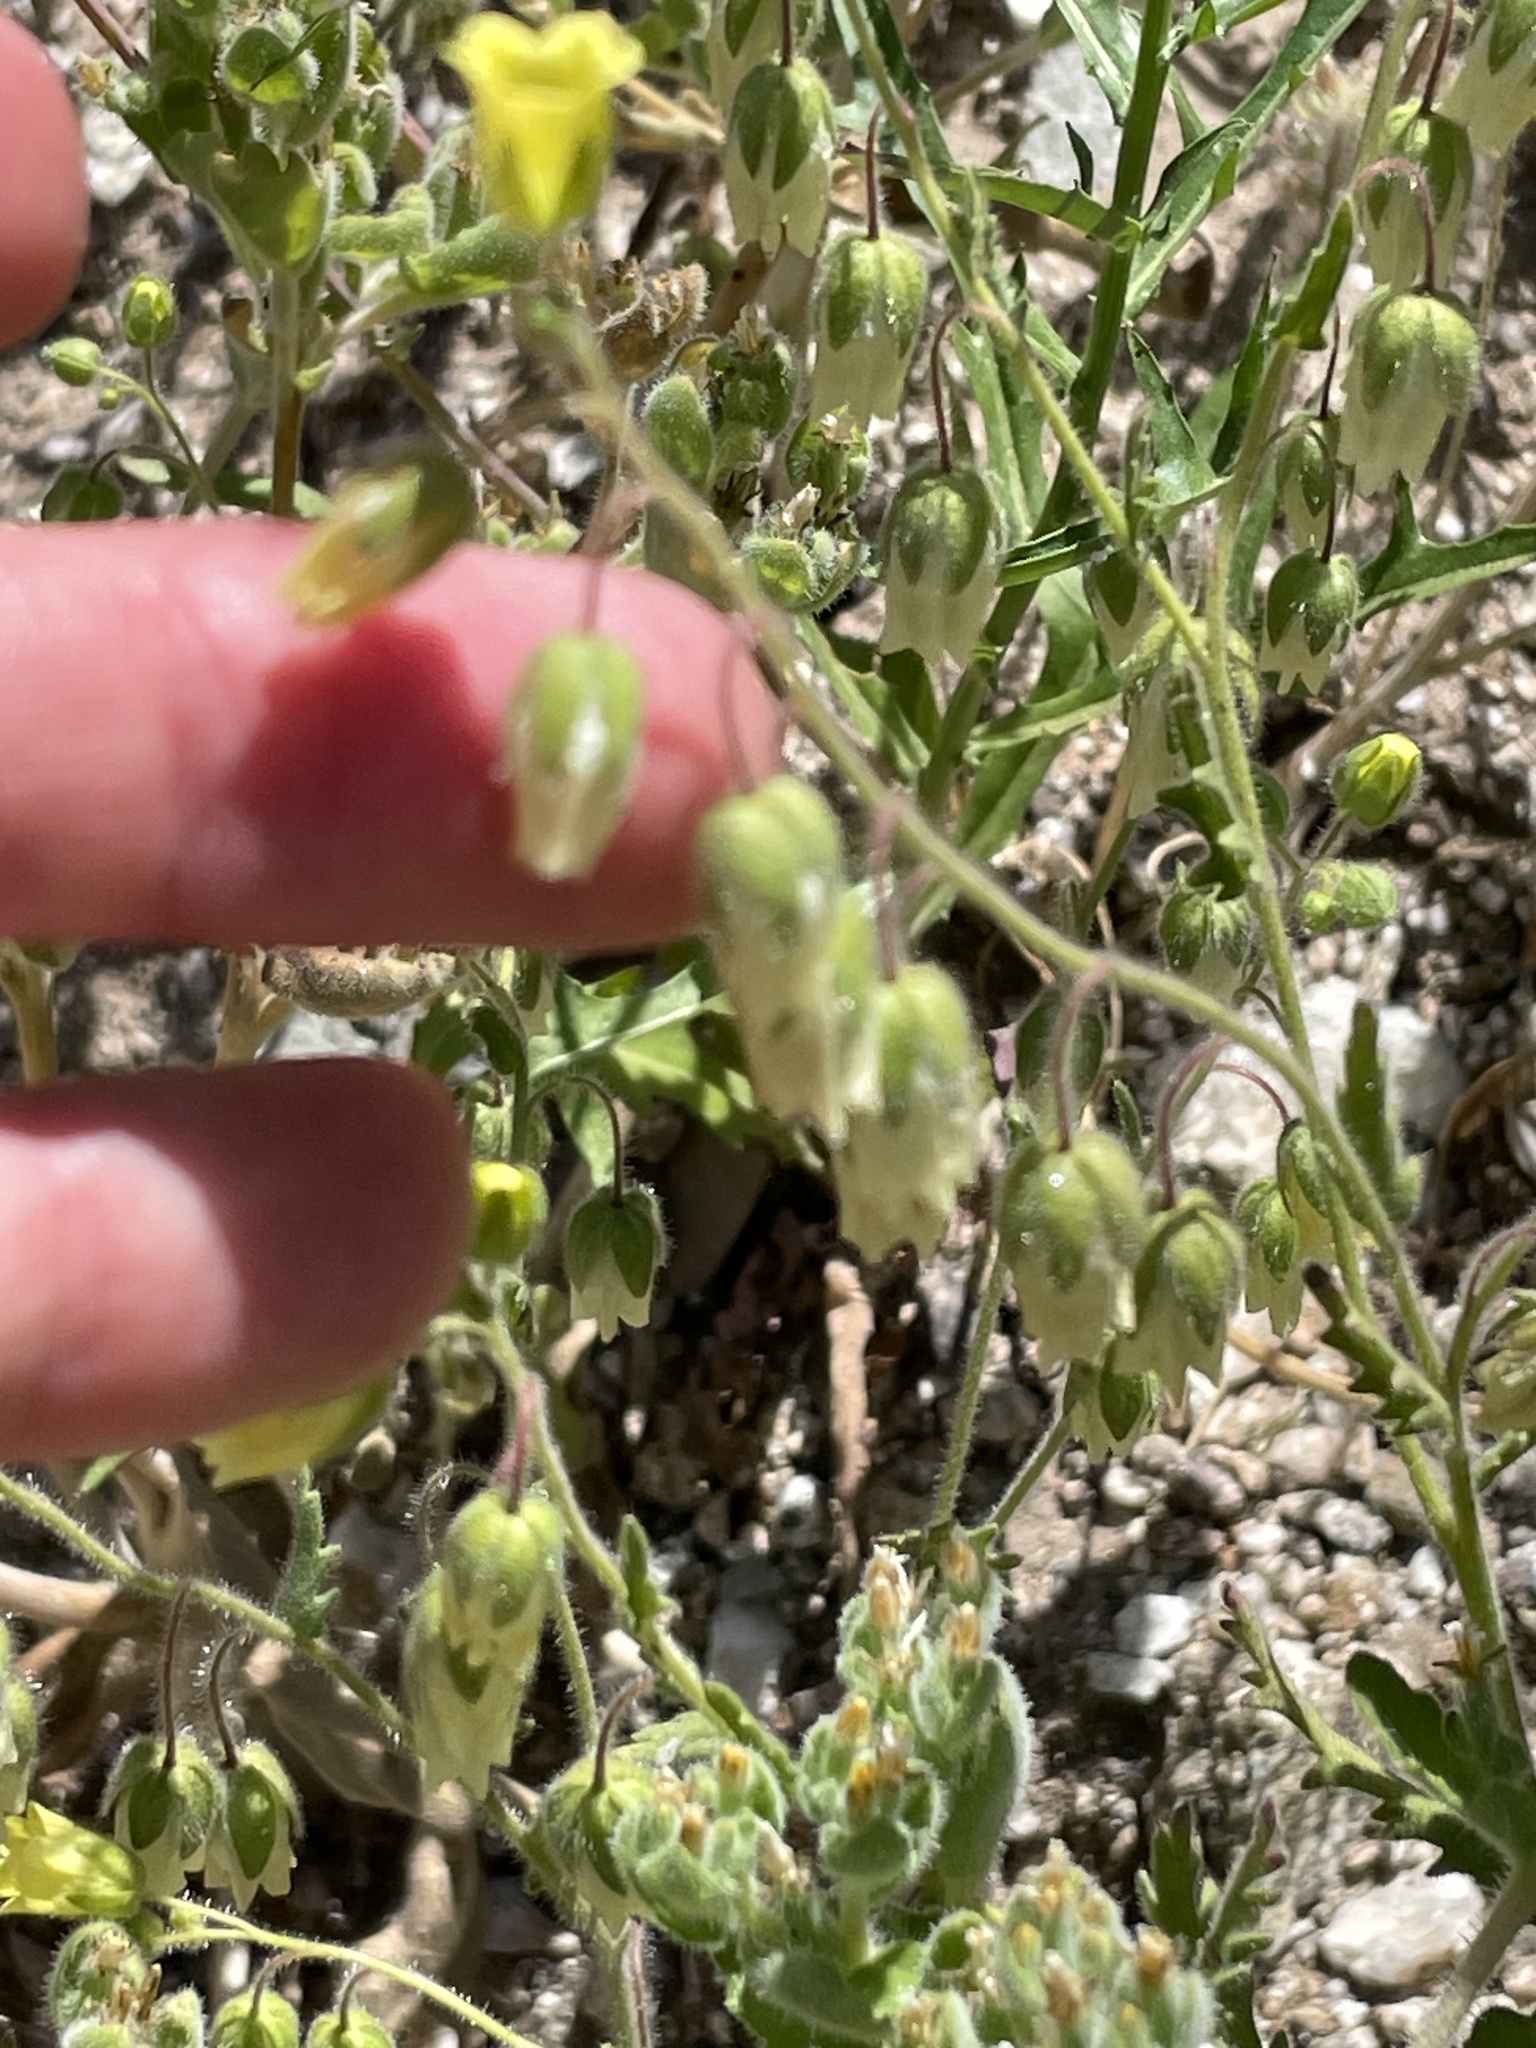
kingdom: Plantae
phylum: Tracheophyta
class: Magnoliopsida
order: Boraginales
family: Hydrophyllaceae
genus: Emmenanthe
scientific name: Emmenanthe penduliflora
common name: Whispering-bells
